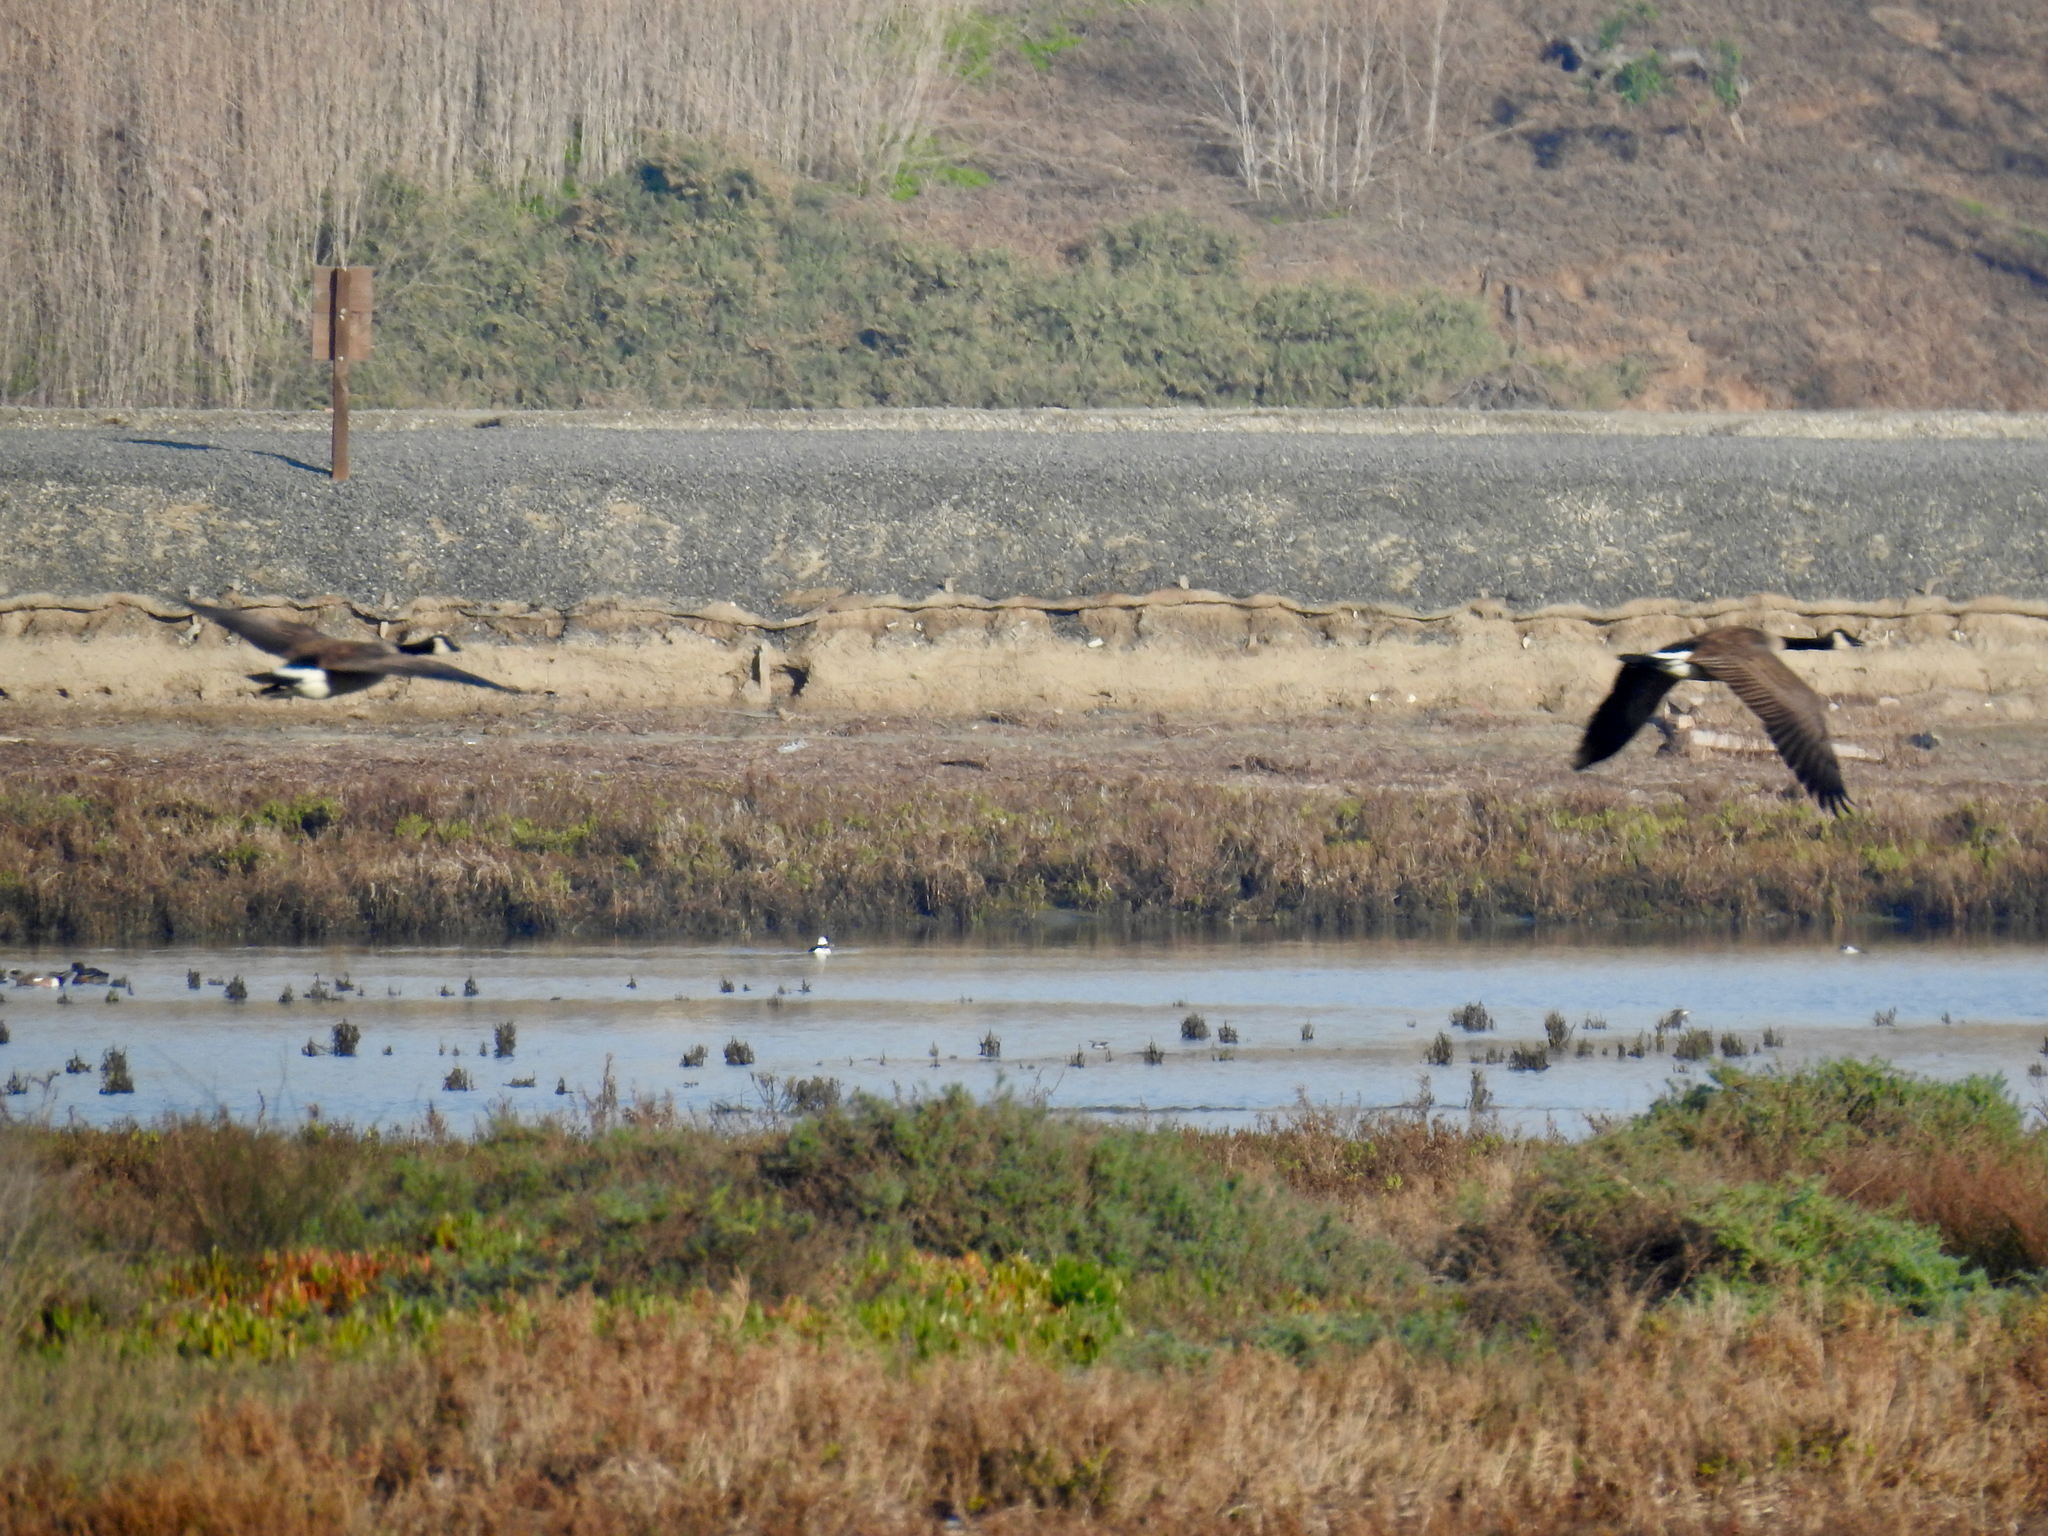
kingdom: Animalia
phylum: Chordata
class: Aves
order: Anseriformes
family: Anatidae
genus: Branta
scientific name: Branta canadensis
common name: Canada goose
